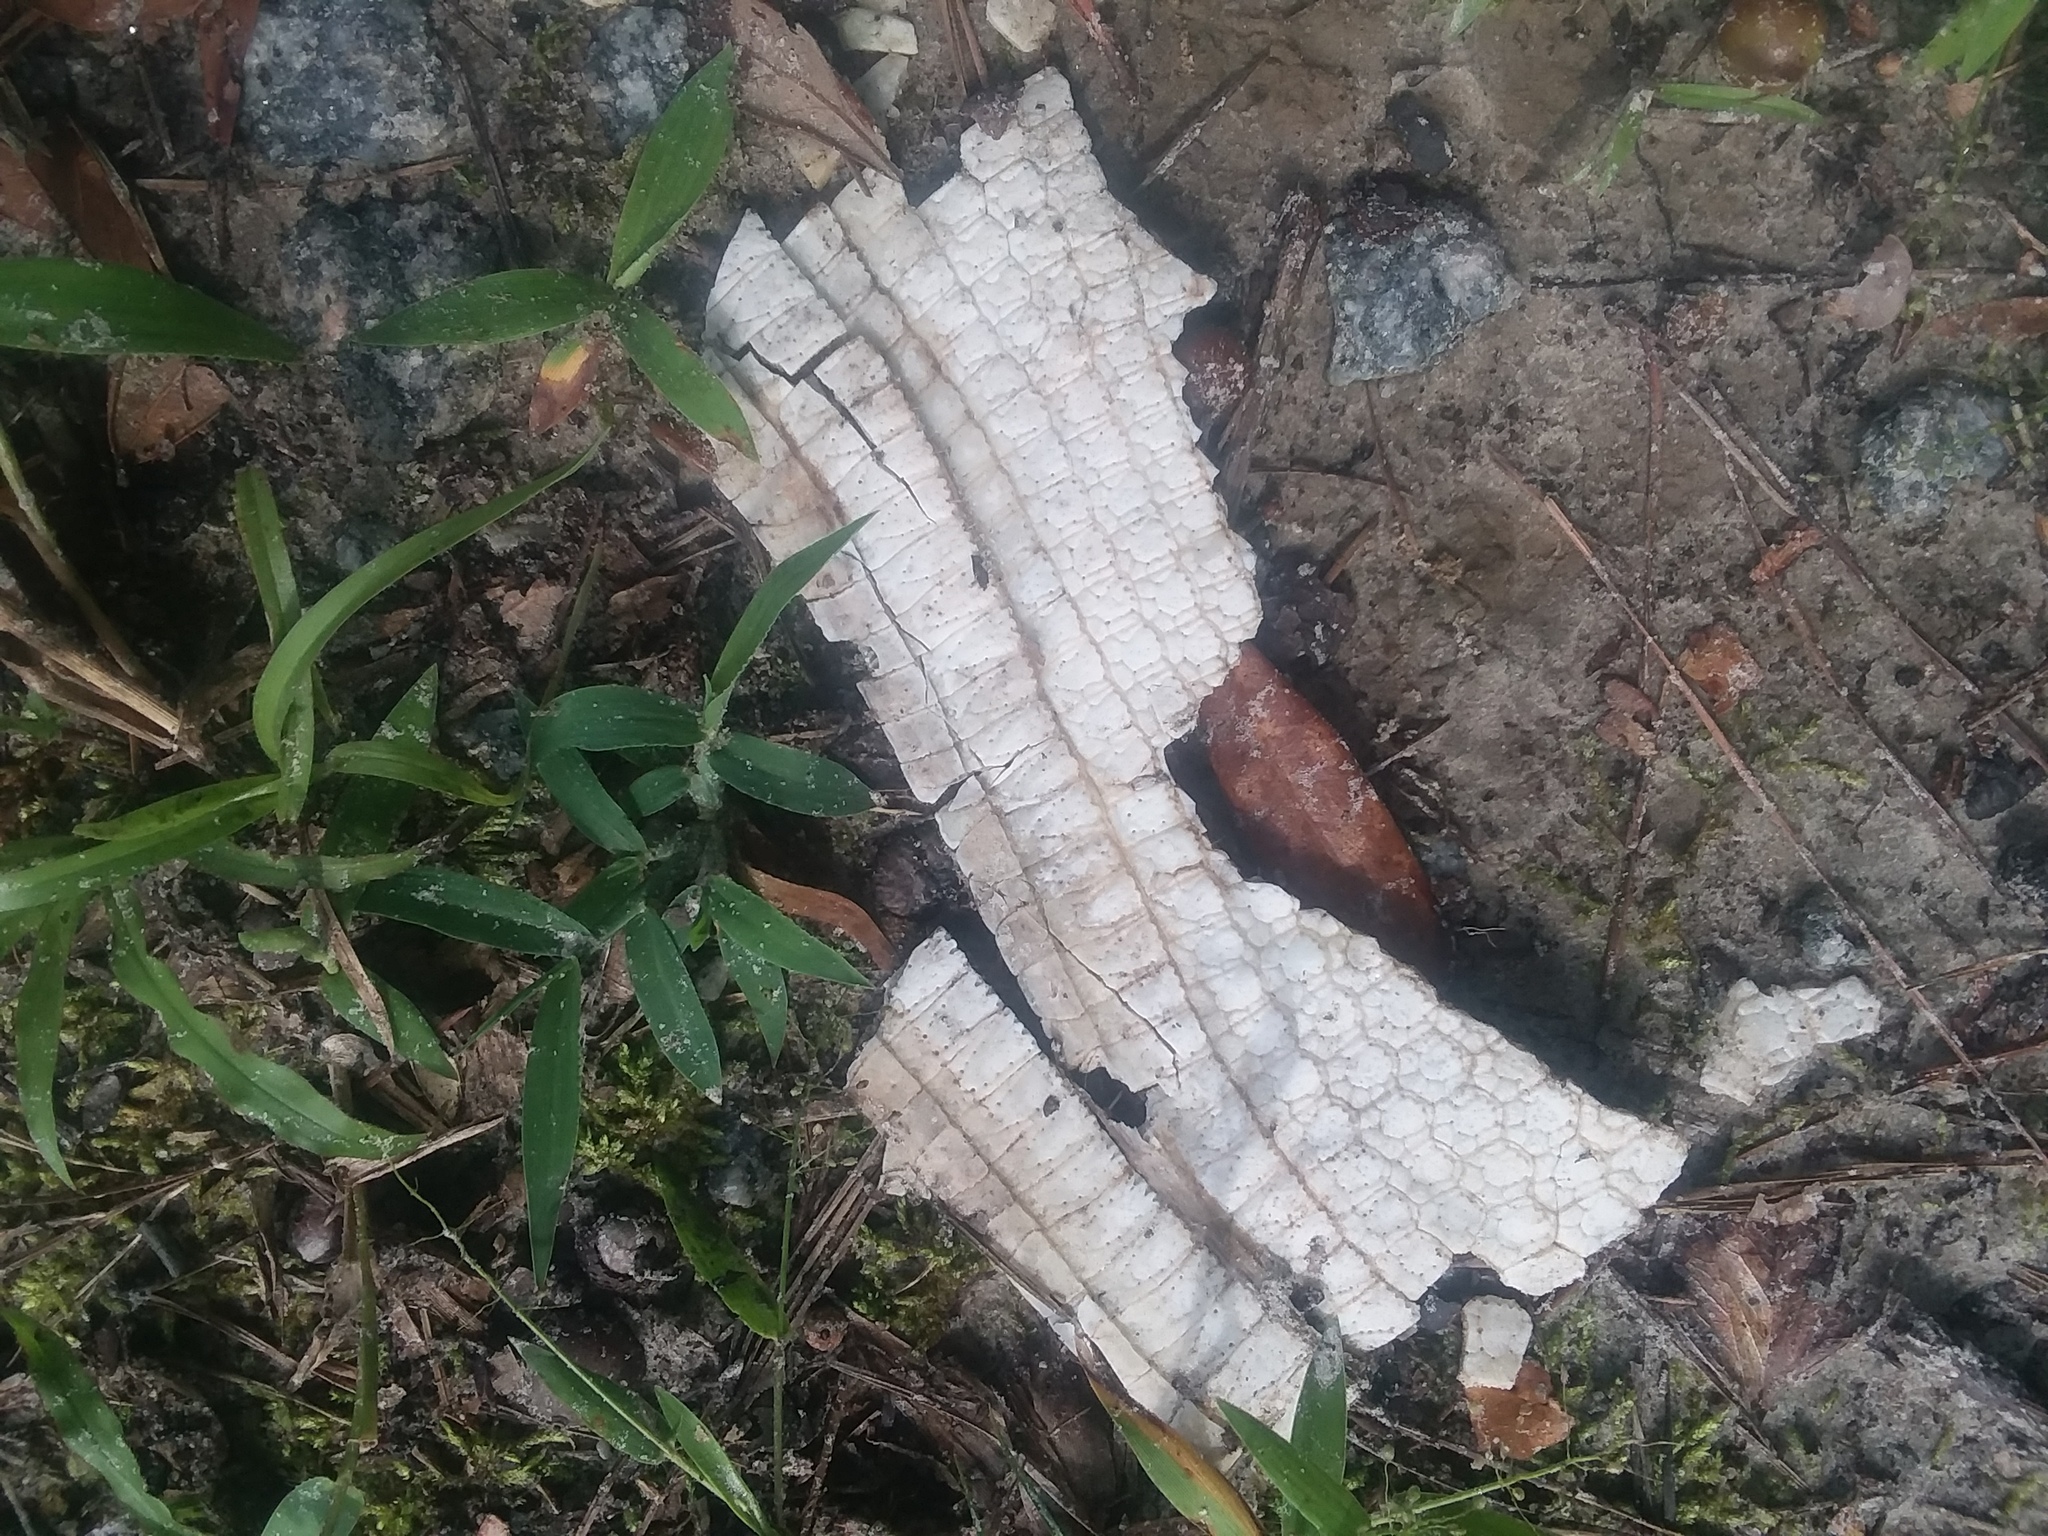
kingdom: Animalia
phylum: Chordata
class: Mammalia
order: Cingulata
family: Dasypodidae
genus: Dasypus
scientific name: Dasypus novemcinctus
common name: Nine-banded armadillo
